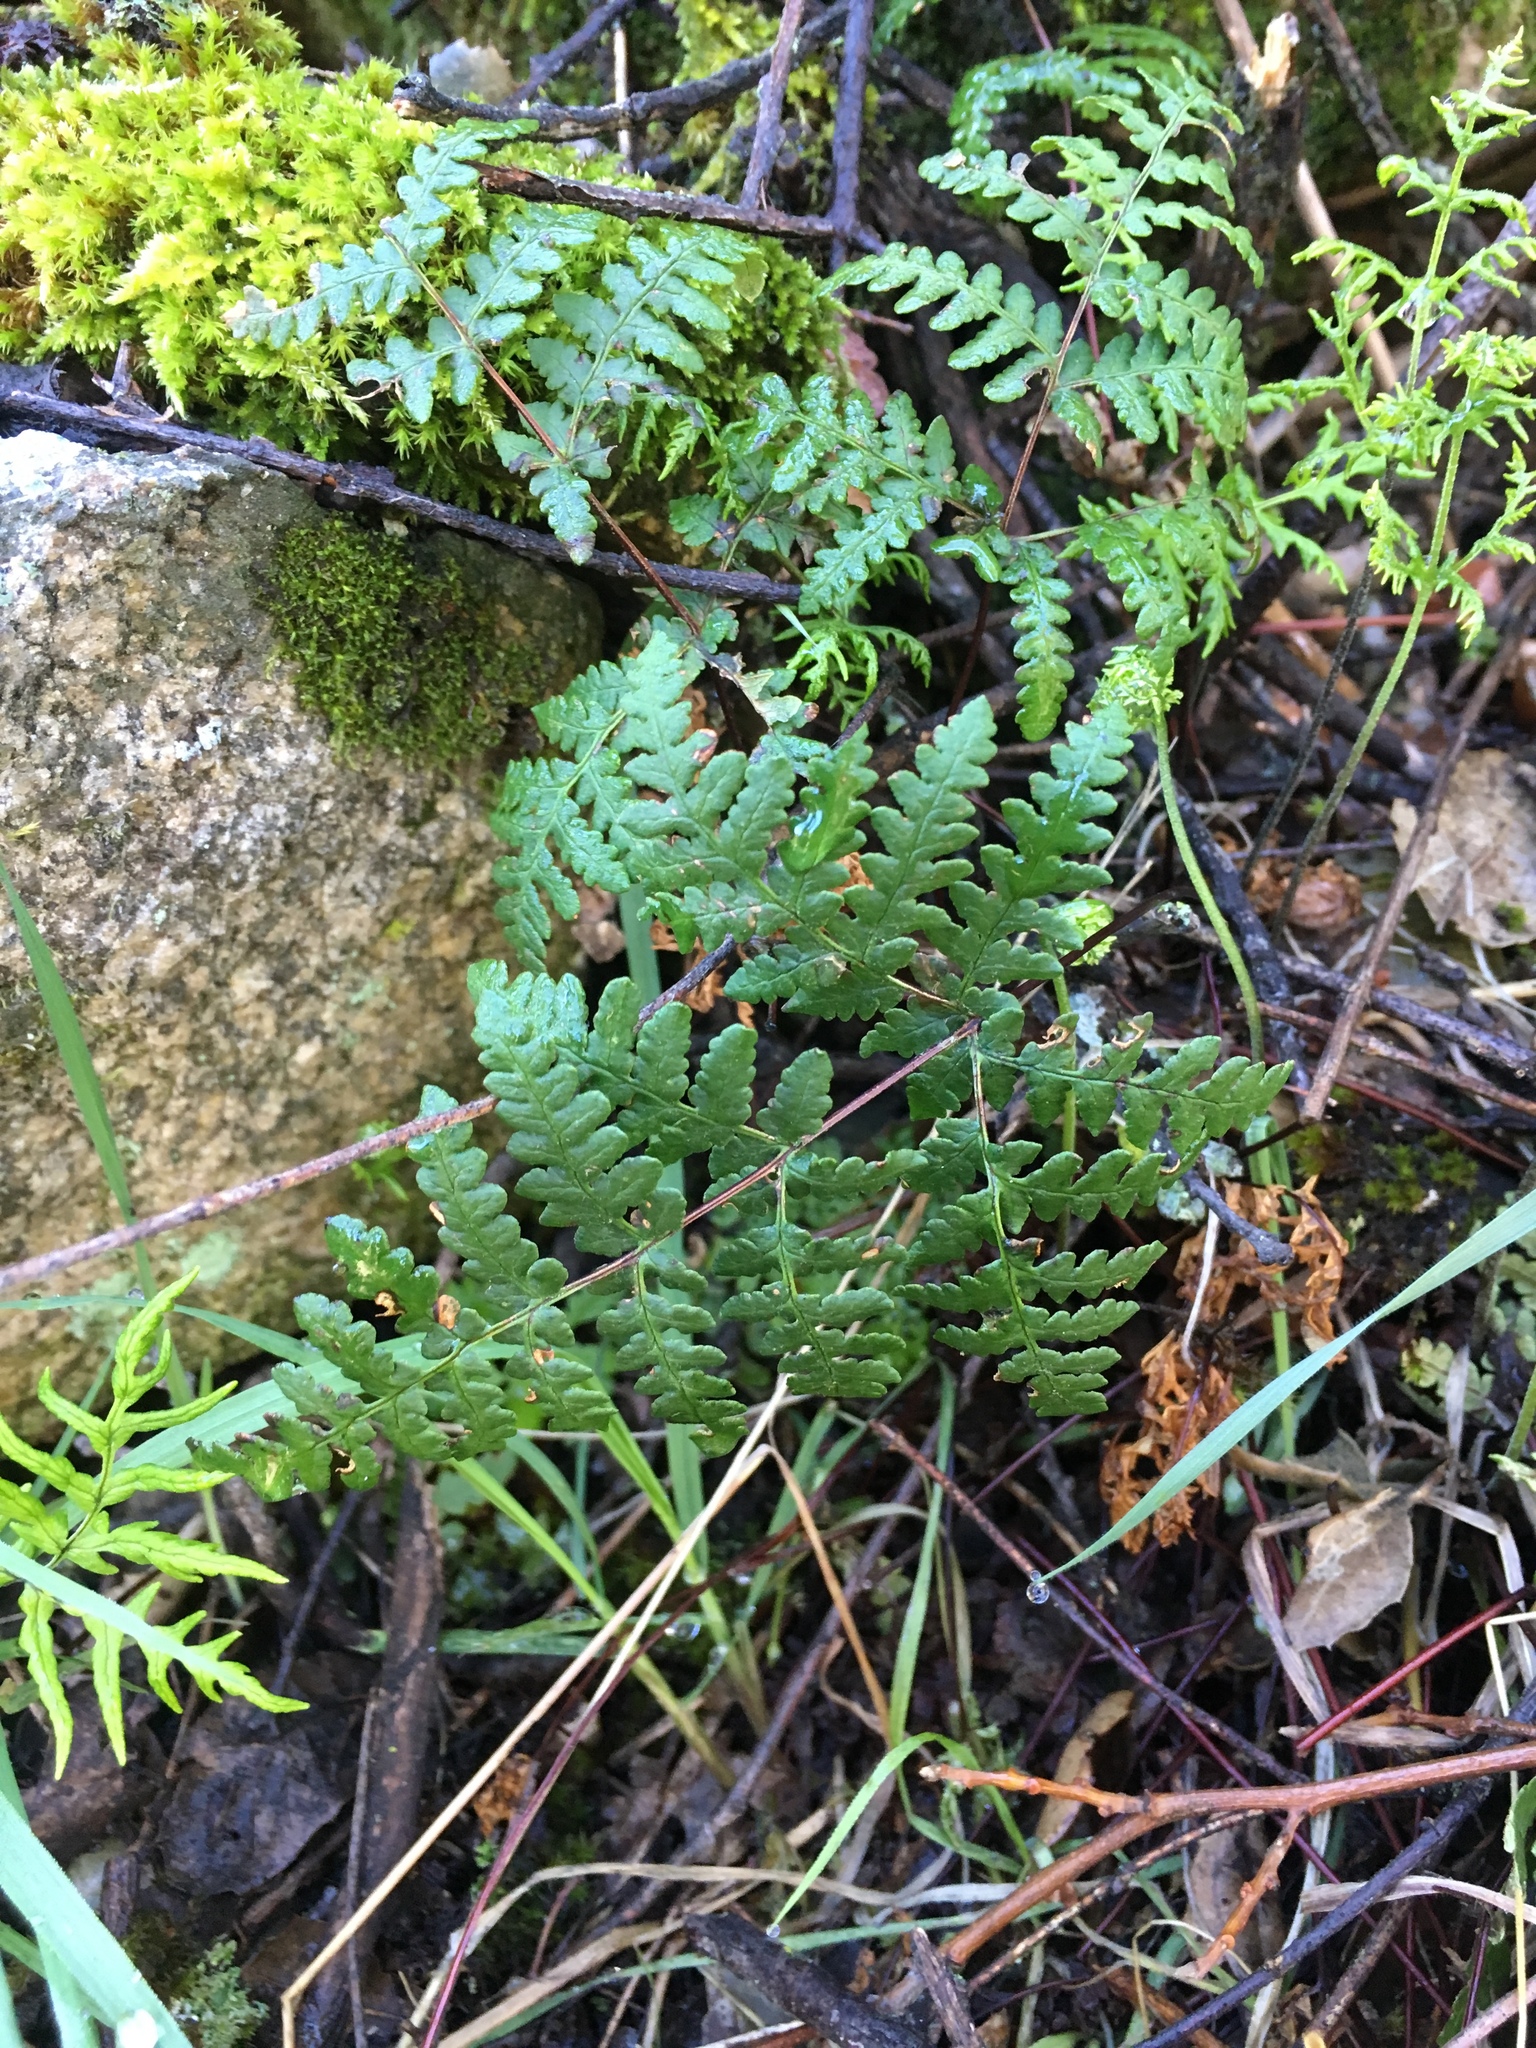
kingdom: Plantae
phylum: Tracheophyta
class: Polypodiopsida
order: Polypodiales
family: Pteridaceae
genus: Pentagramma
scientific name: Pentagramma triangularis
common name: Gold fern
